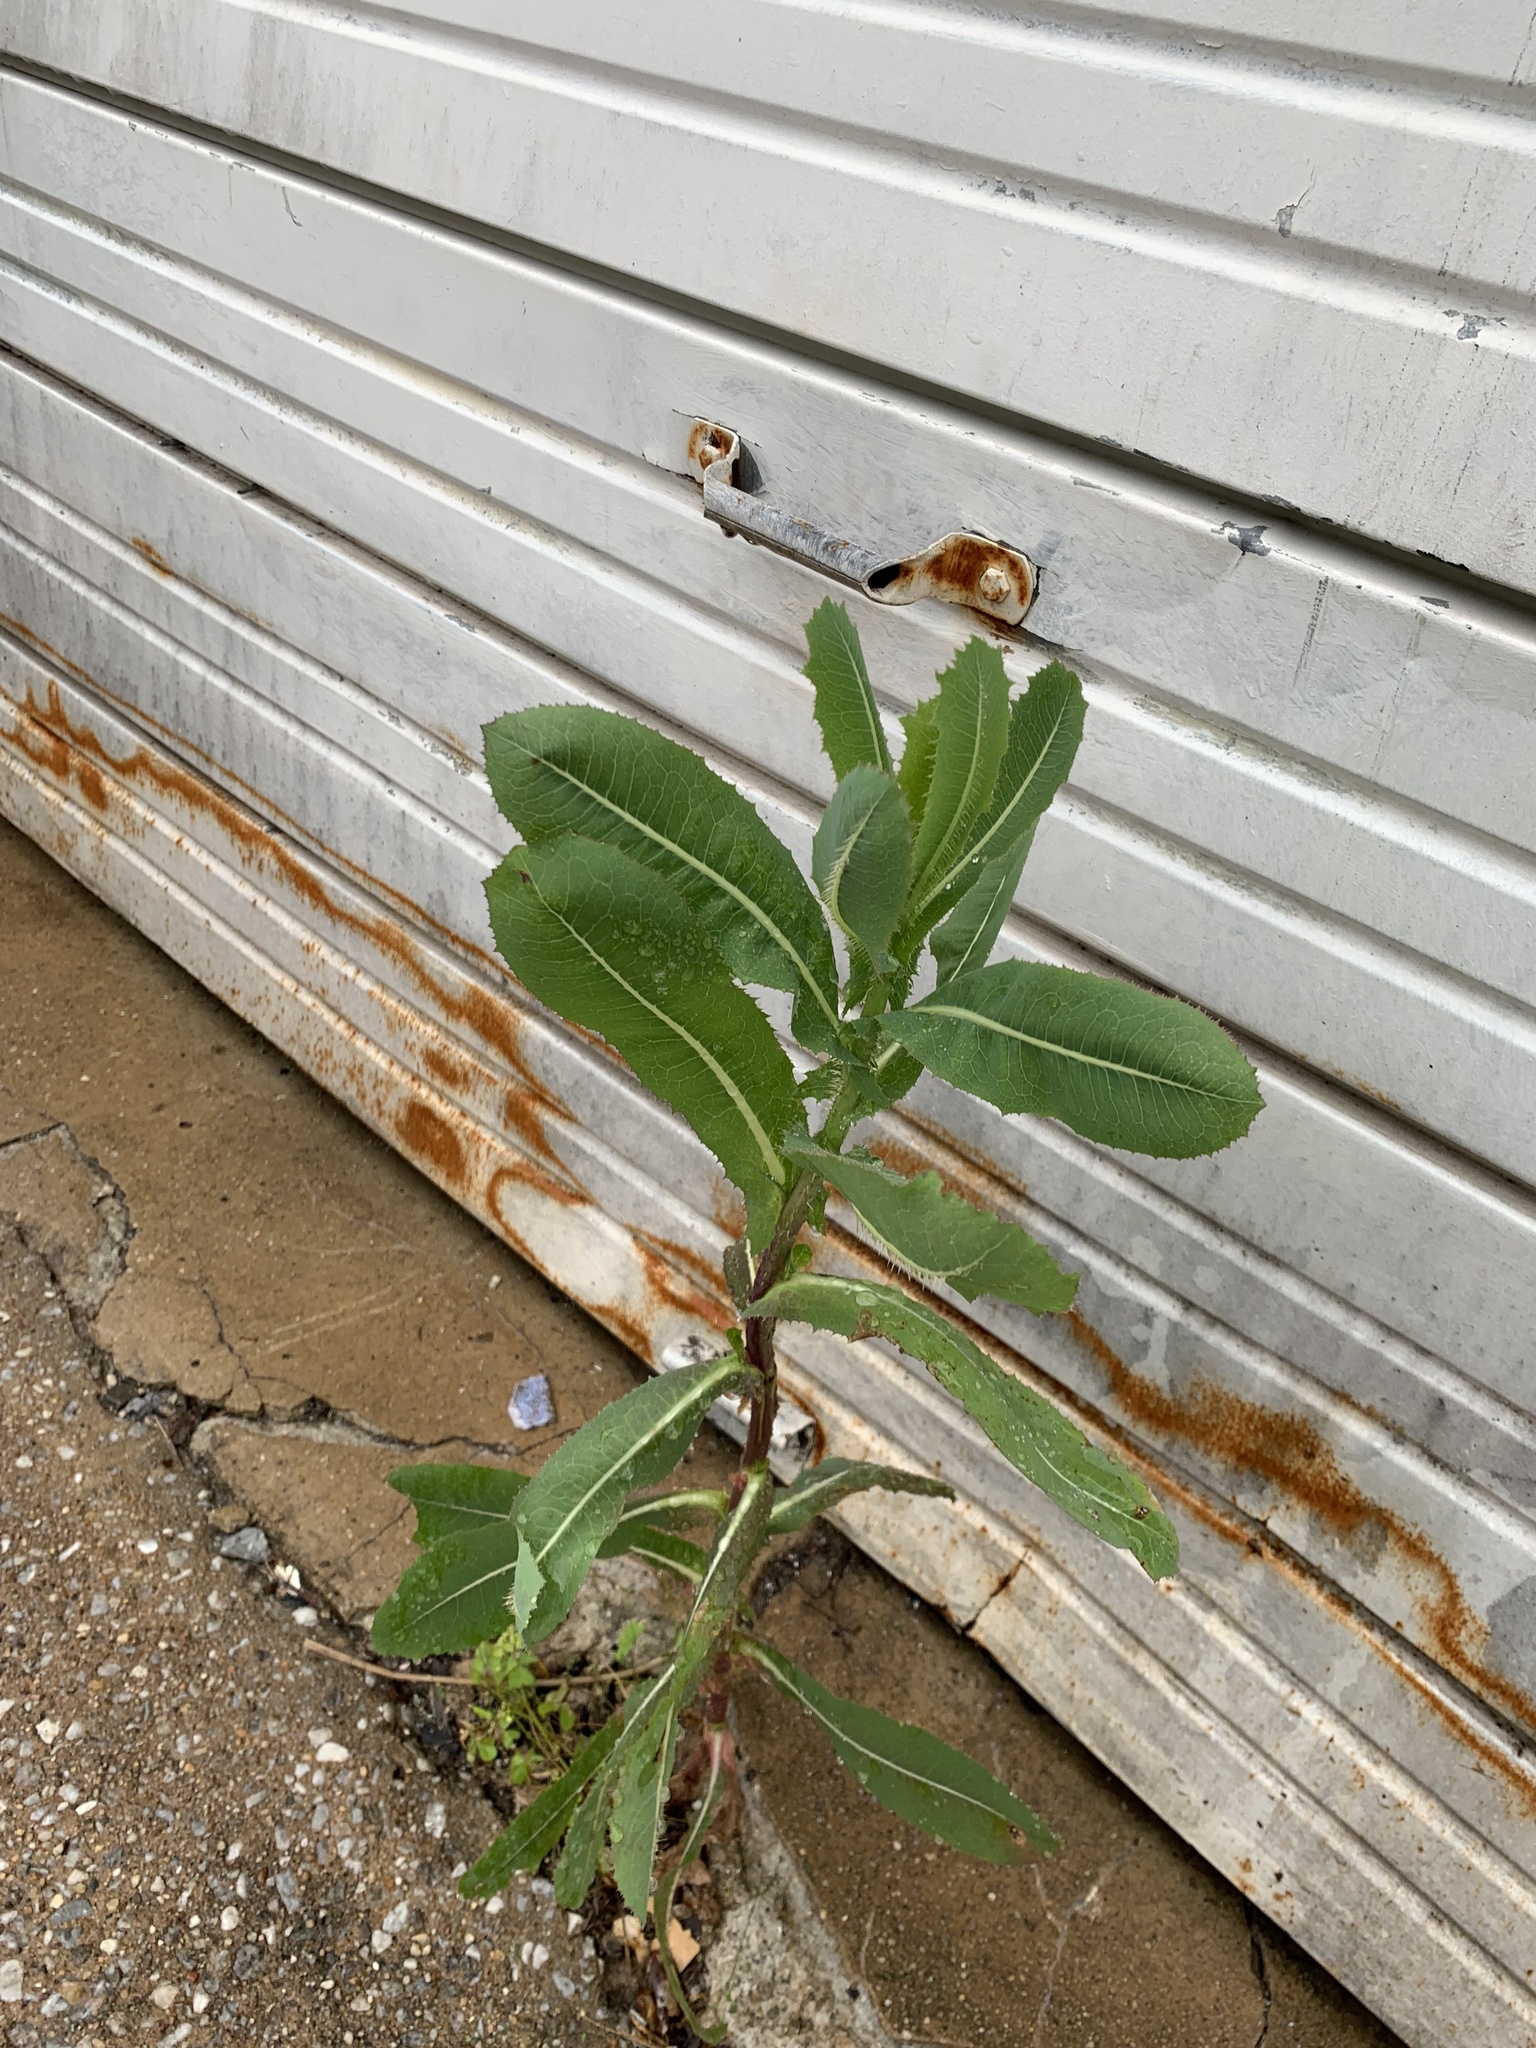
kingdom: Plantae
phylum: Tracheophyta
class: Magnoliopsida
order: Asterales
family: Asteraceae
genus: Lactuca
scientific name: Lactuca serriola
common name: Prickly lettuce
